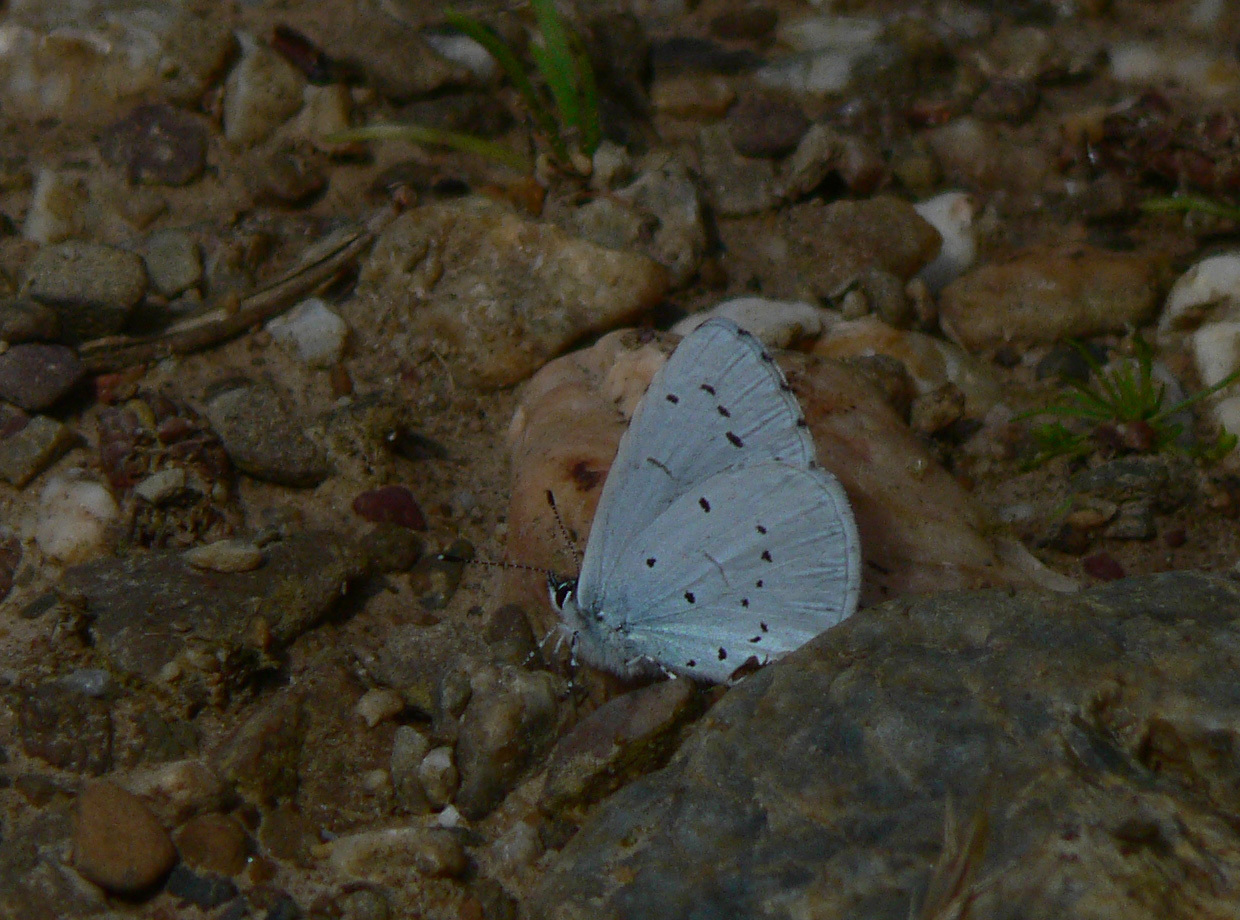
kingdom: Animalia
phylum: Arthropoda
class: Insecta
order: Lepidoptera
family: Lycaenidae
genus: Celastrina
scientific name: Celastrina argiolus
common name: Holly blue
